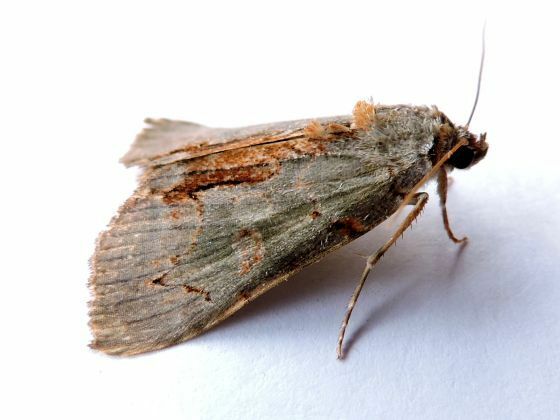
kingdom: Animalia
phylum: Arthropoda
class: Insecta
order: Lepidoptera
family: Erebidae
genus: Catocala
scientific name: Catocala grynea
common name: Woody underwing
